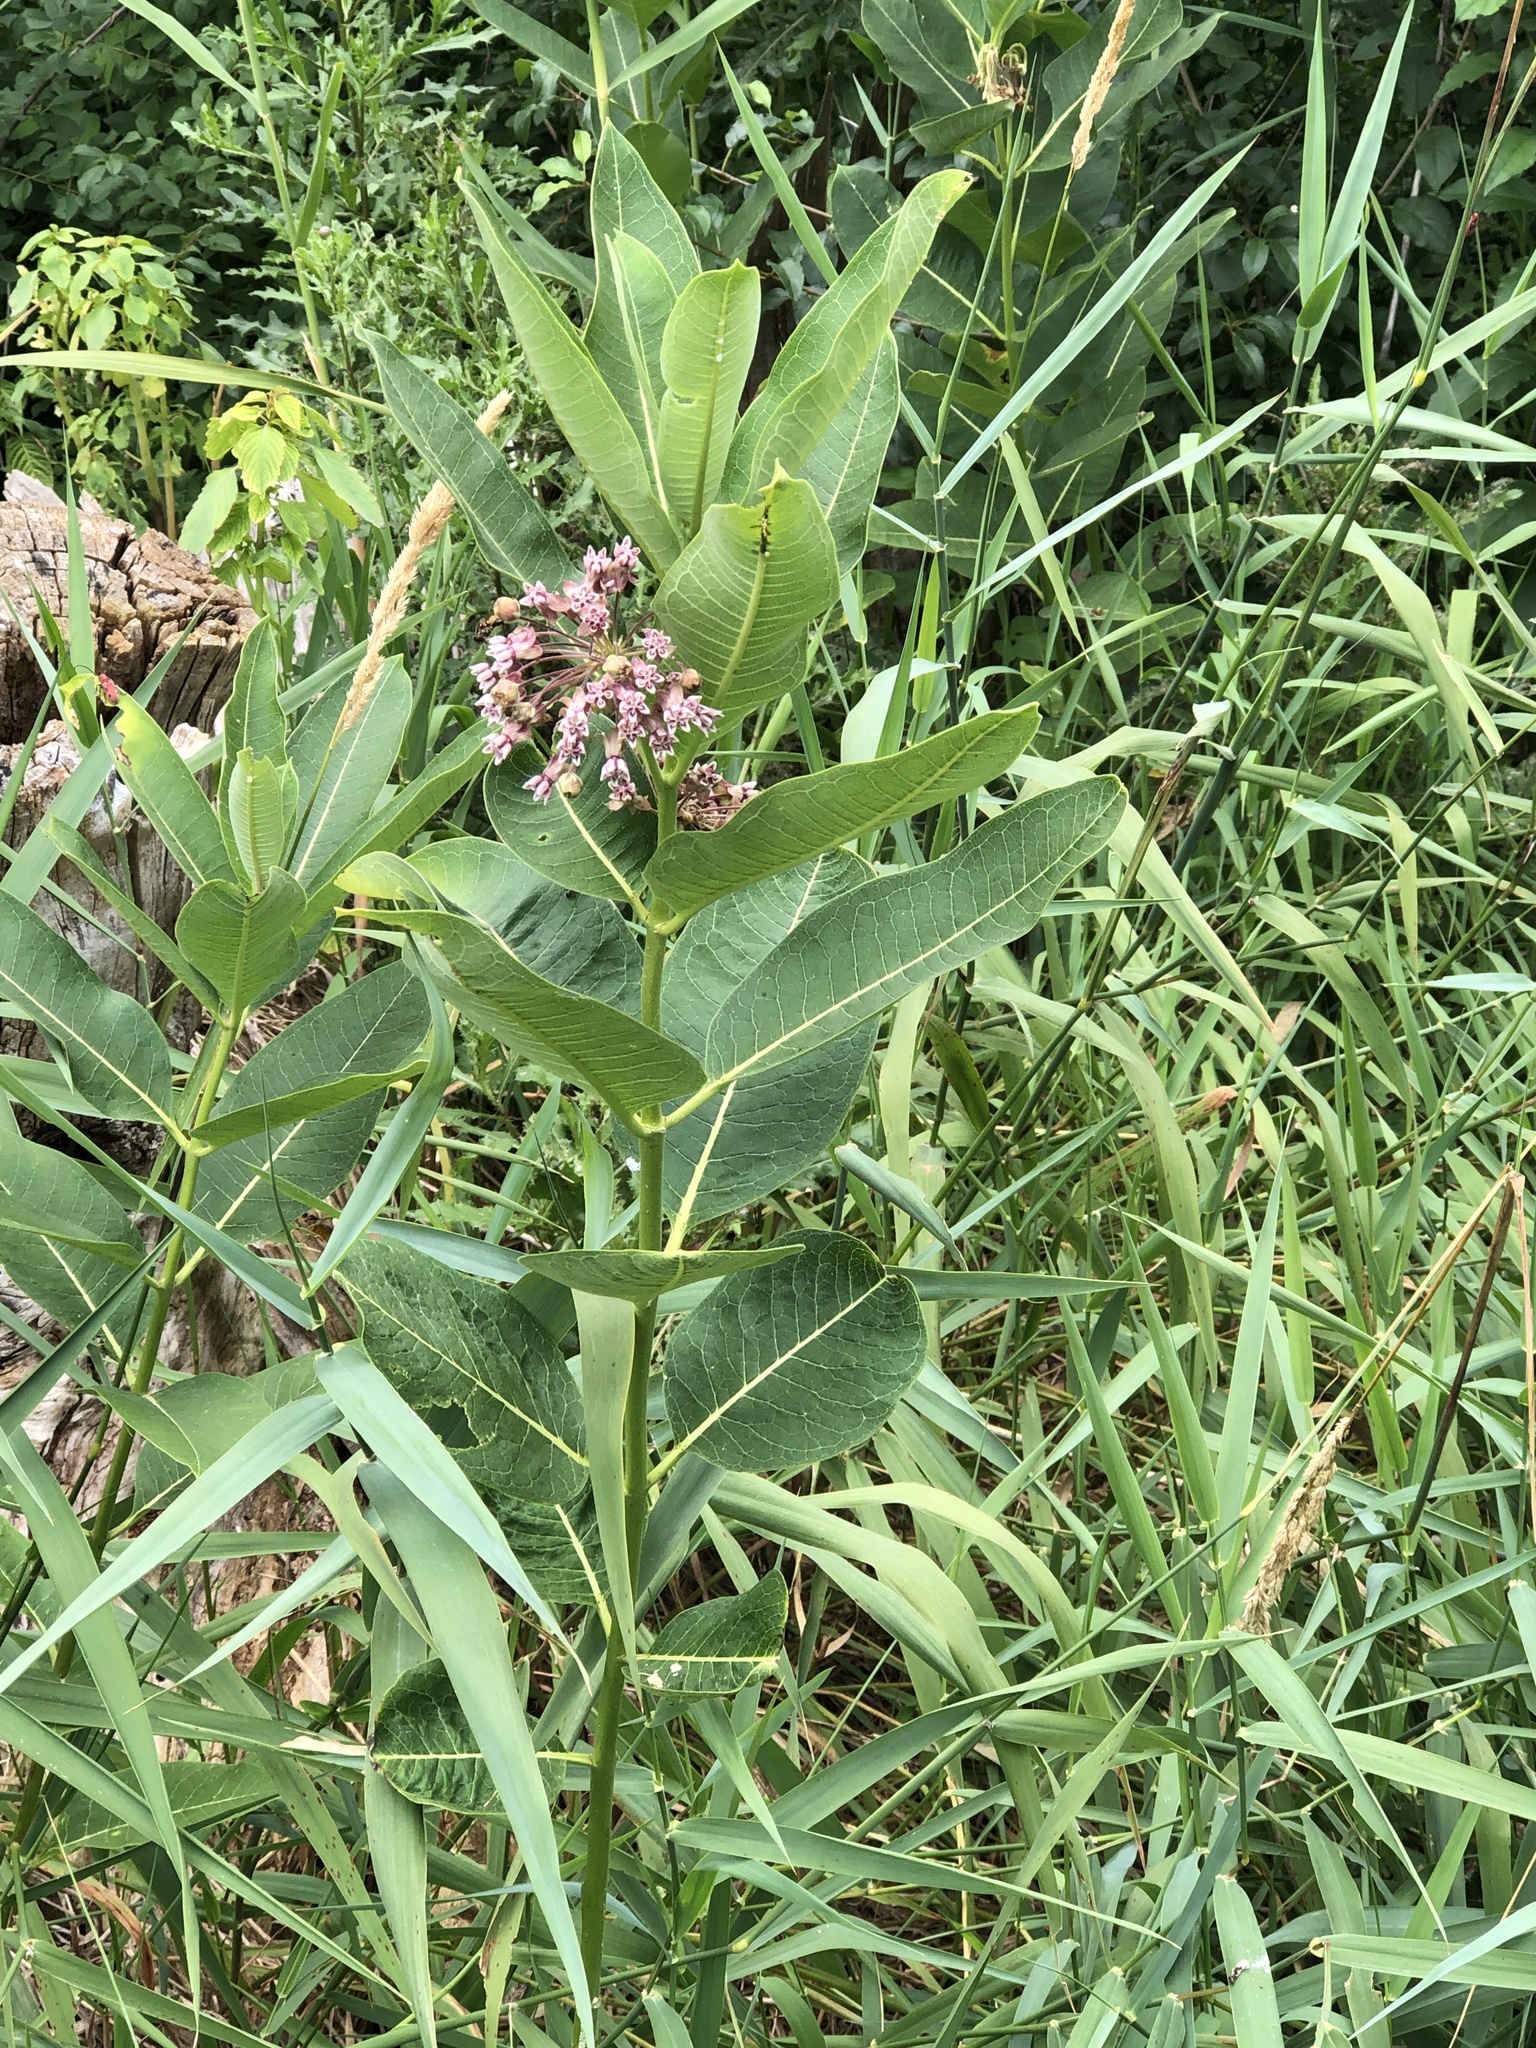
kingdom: Plantae
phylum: Tracheophyta
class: Magnoliopsida
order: Gentianales
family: Apocynaceae
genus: Asclepias
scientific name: Asclepias syriaca
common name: Common milkweed
